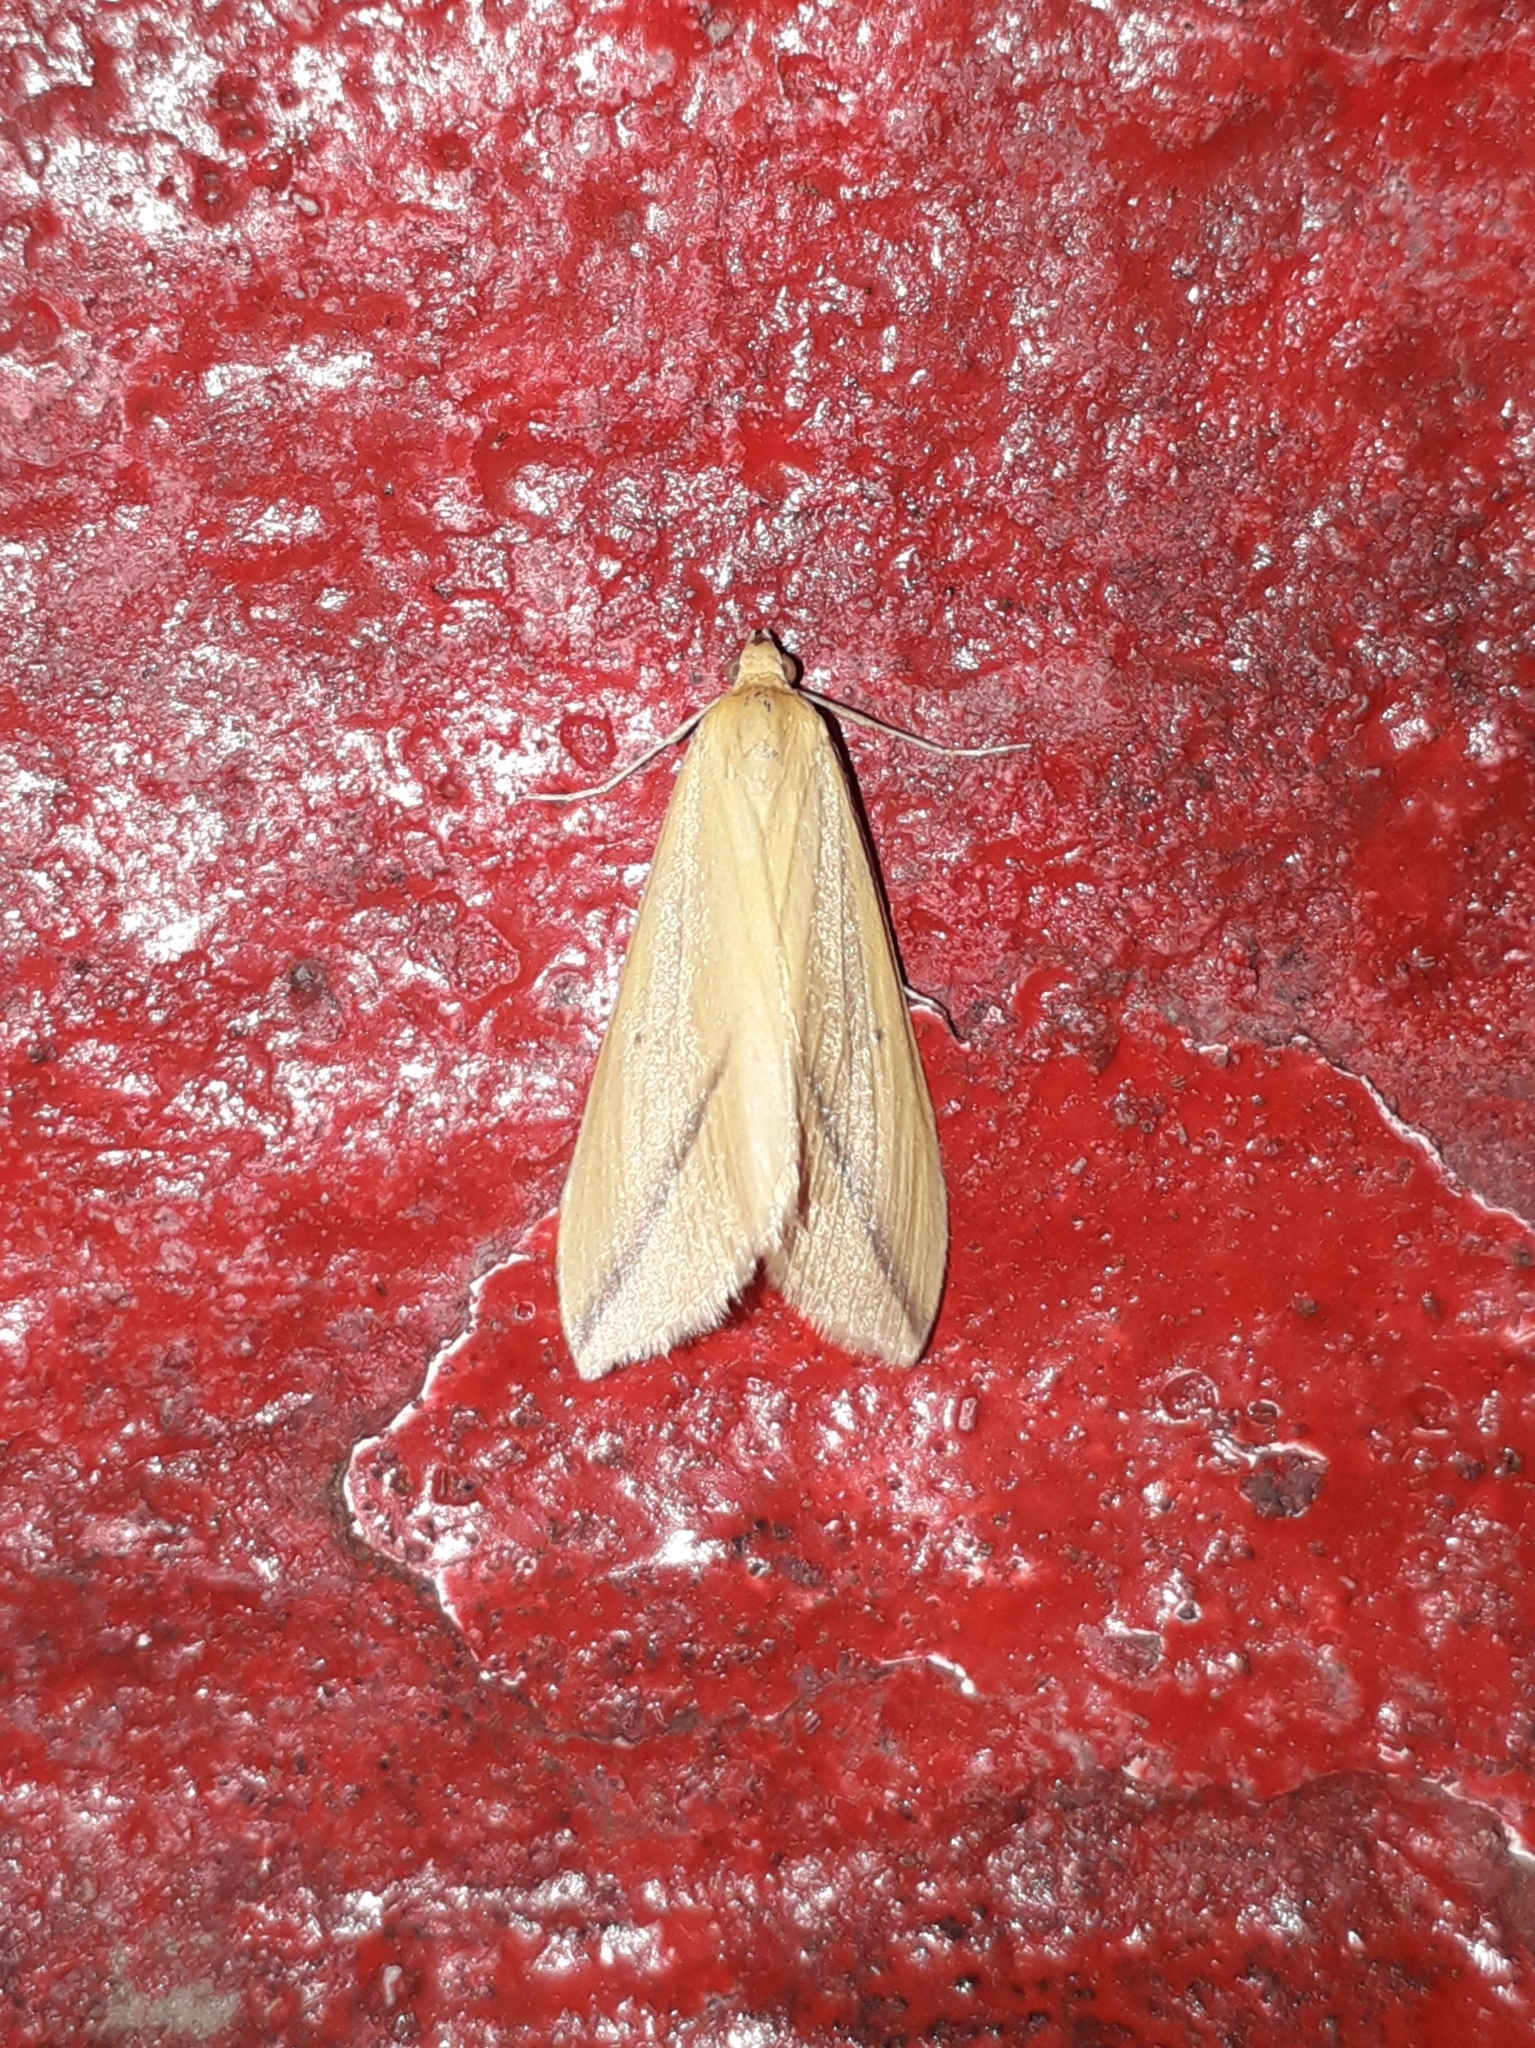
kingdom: Animalia
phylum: Arthropoda
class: Insecta
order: Lepidoptera
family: Geometridae
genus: Rhodometra
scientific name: Rhodometra sacraria
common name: Vestal
